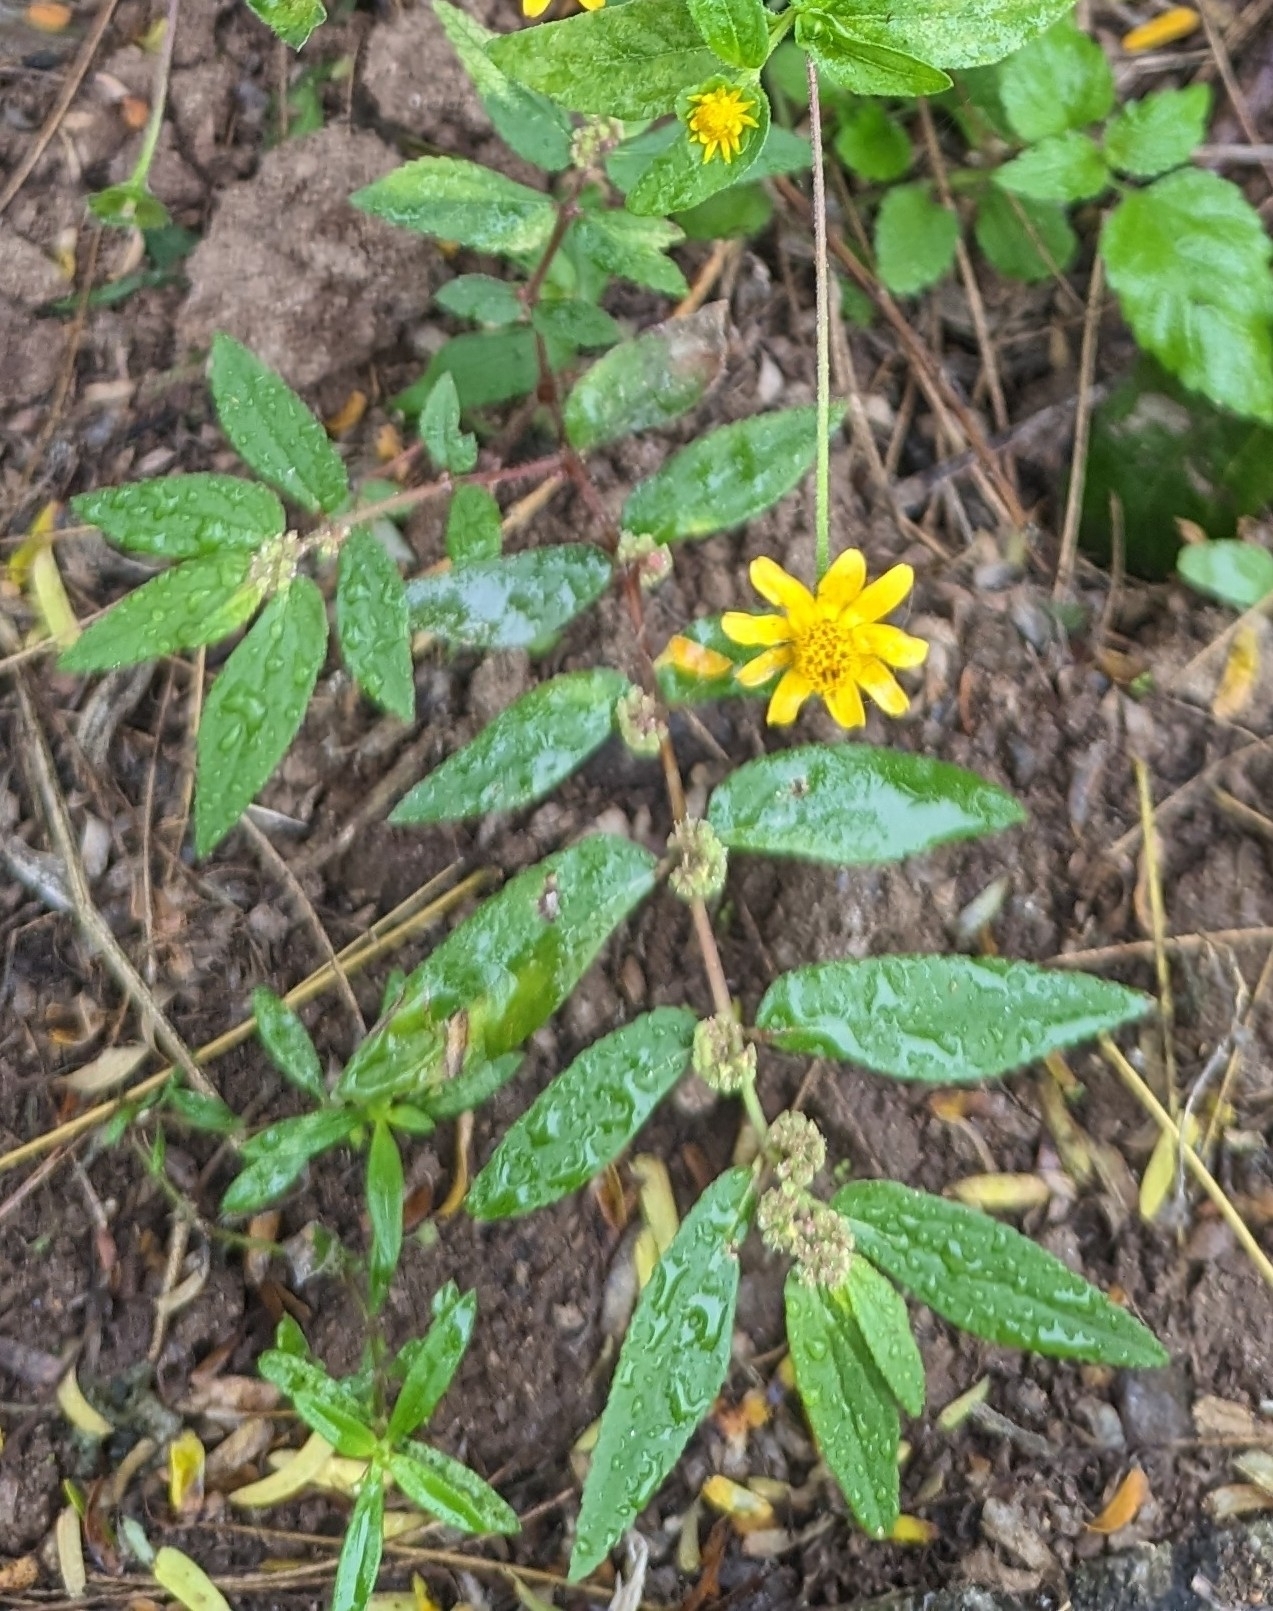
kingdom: Plantae
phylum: Tracheophyta
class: Magnoliopsida
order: Malpighiales
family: Euphorbiaceae
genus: Euphorbia
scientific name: Euphorbia hirta
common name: Pillpod sandmat
